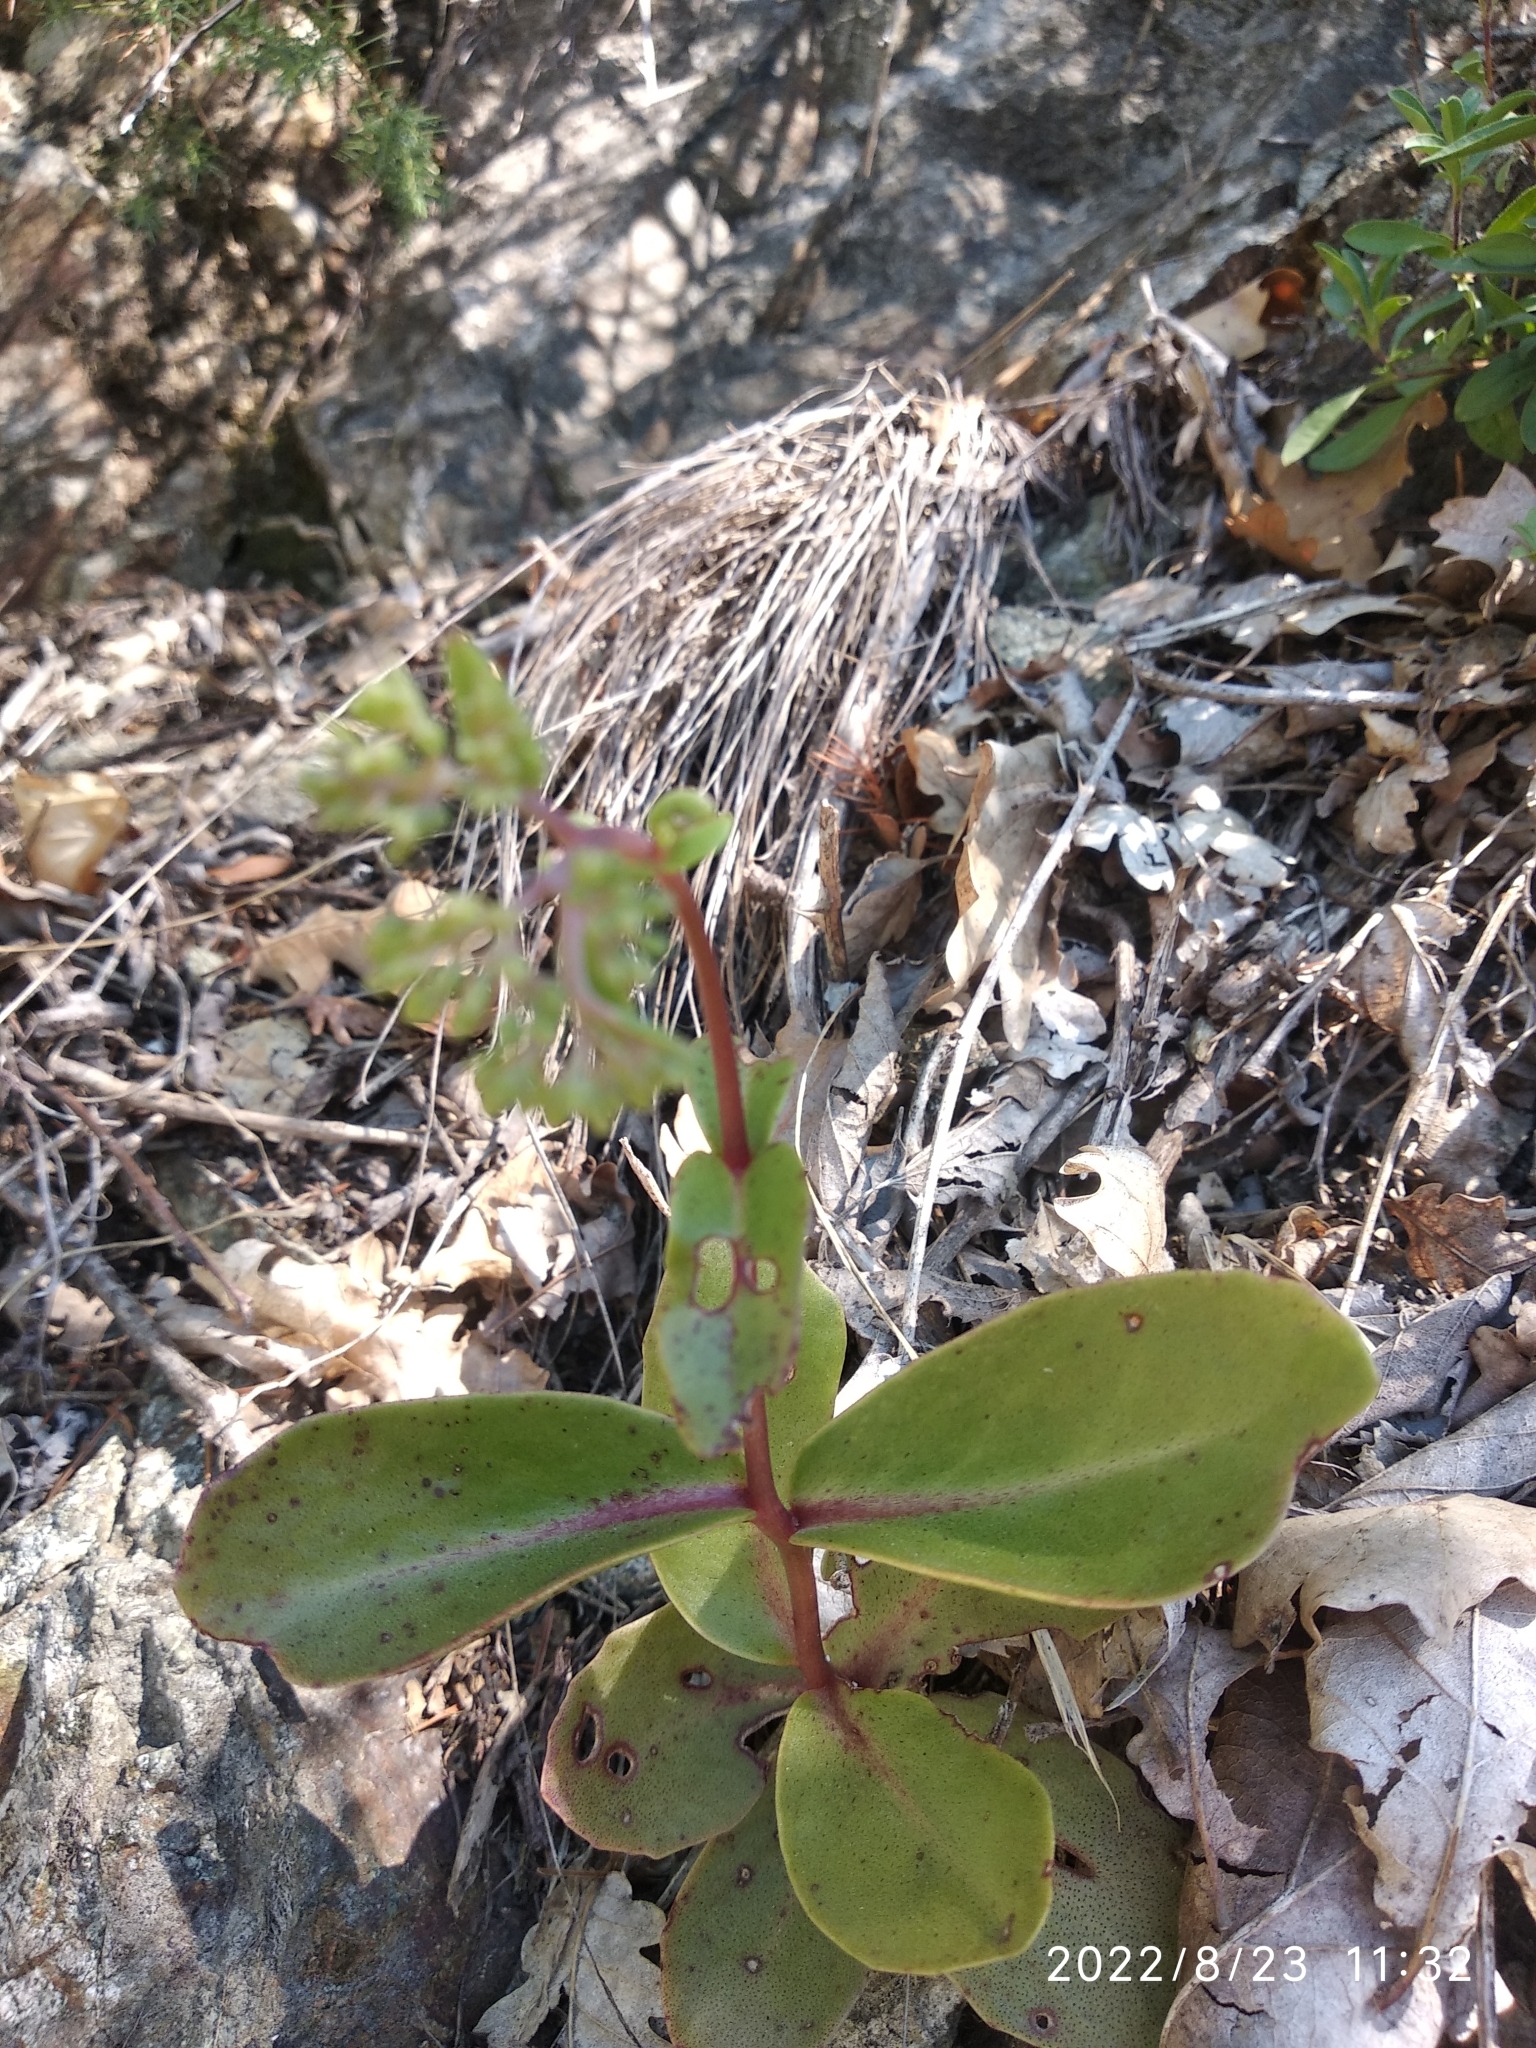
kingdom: Plantae
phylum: Tracheophyta
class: Magnoliopsida
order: Saxifragales
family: Crassulaceae
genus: Hylotelephium
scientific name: Hylotelephium maximum
